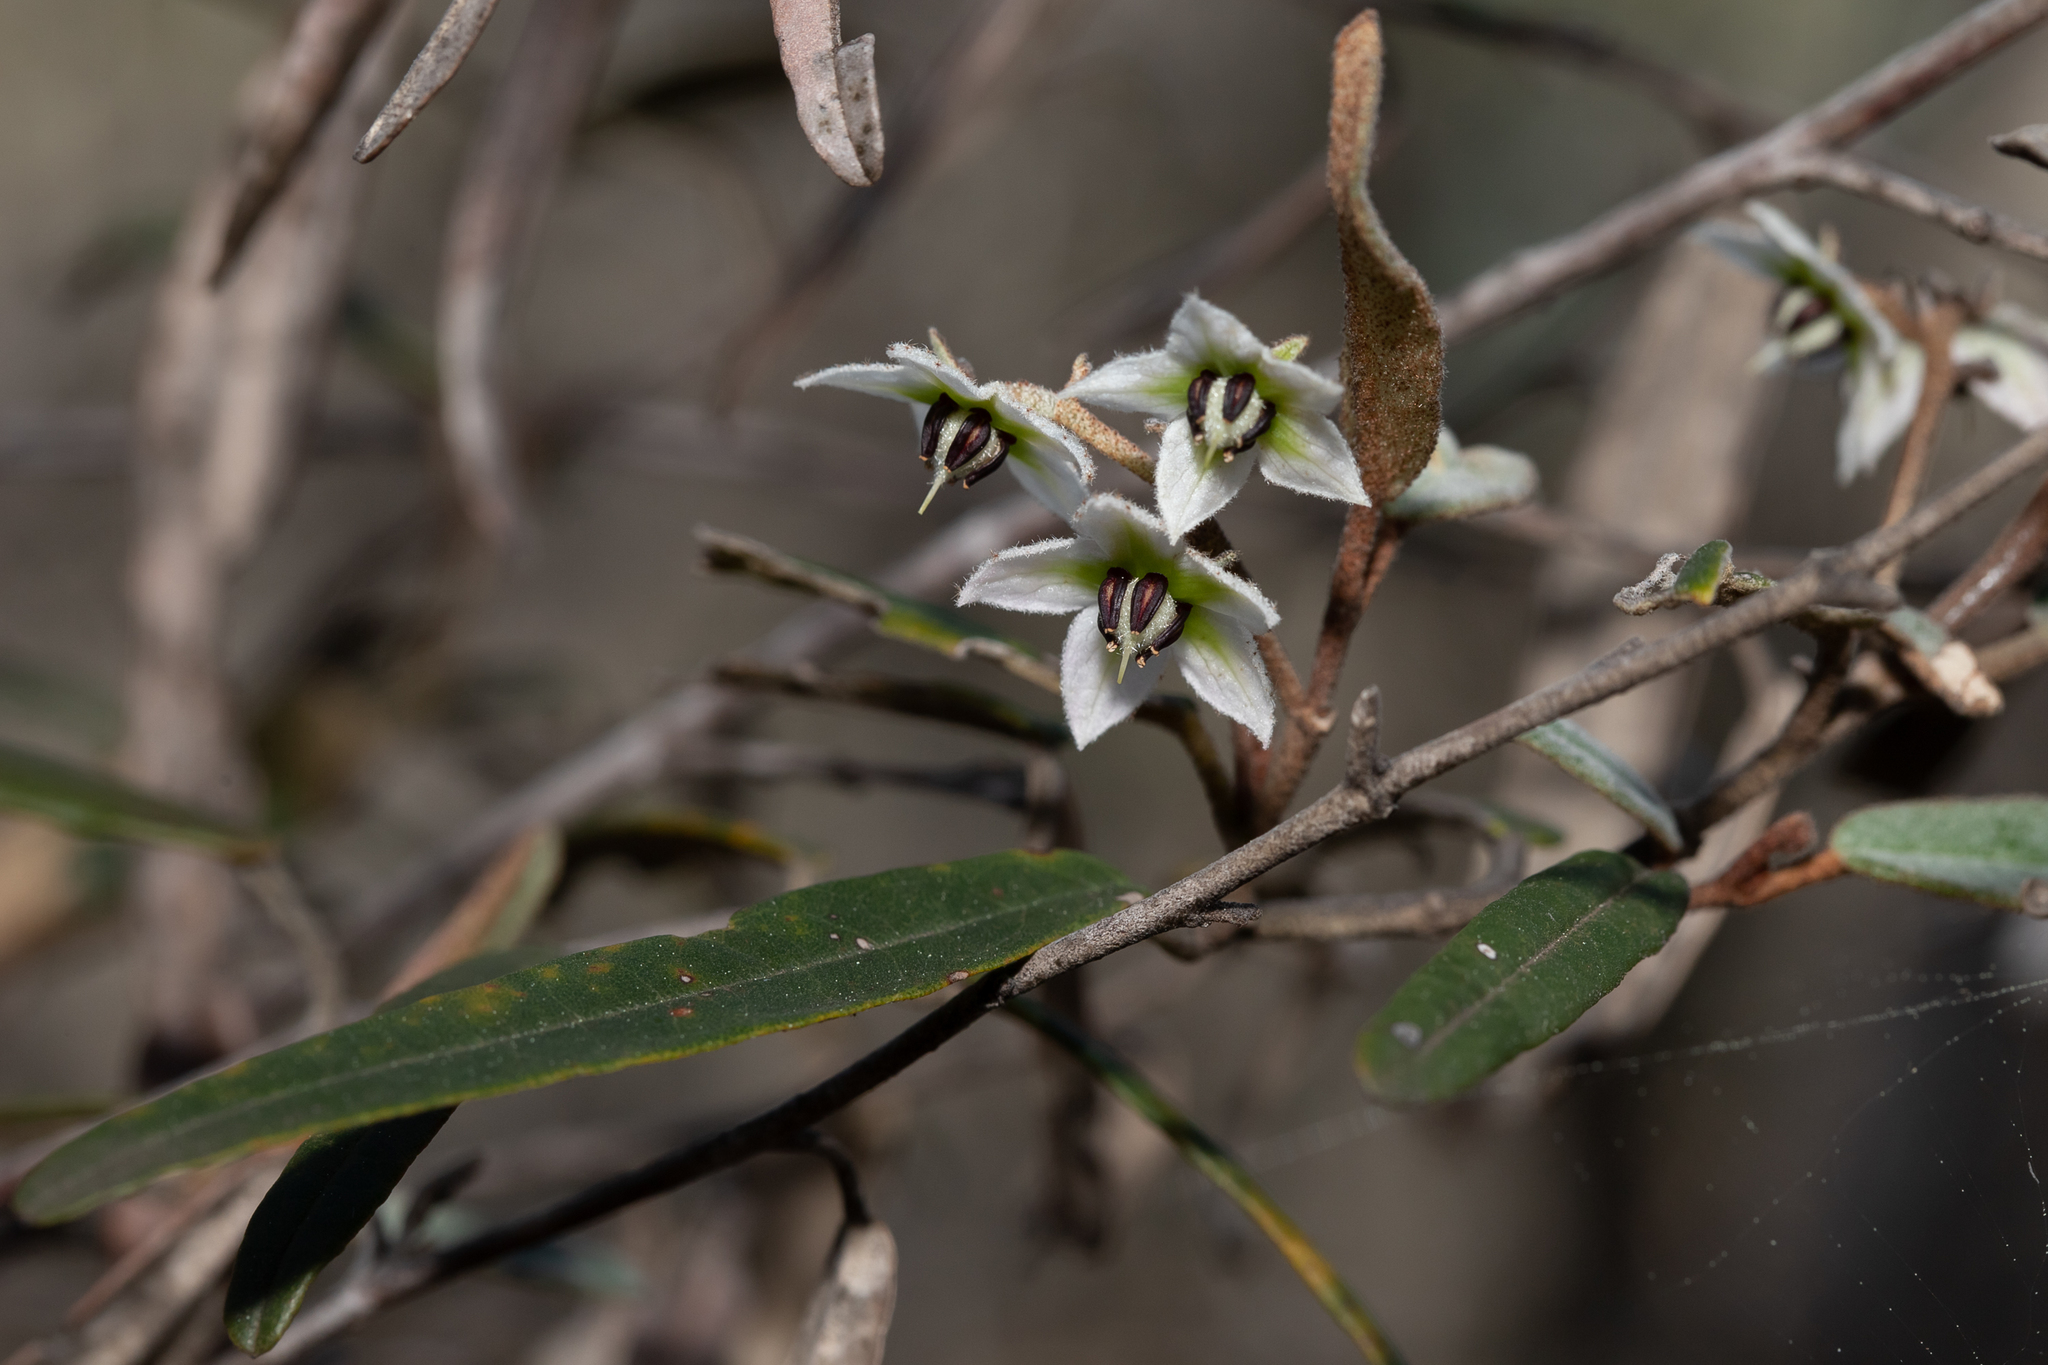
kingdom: Plantae
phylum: Tracheophyta
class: Magnoliopsida
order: Malvales
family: Malvaceae
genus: Lasiopetalum
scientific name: Lasiopetalum behrii
